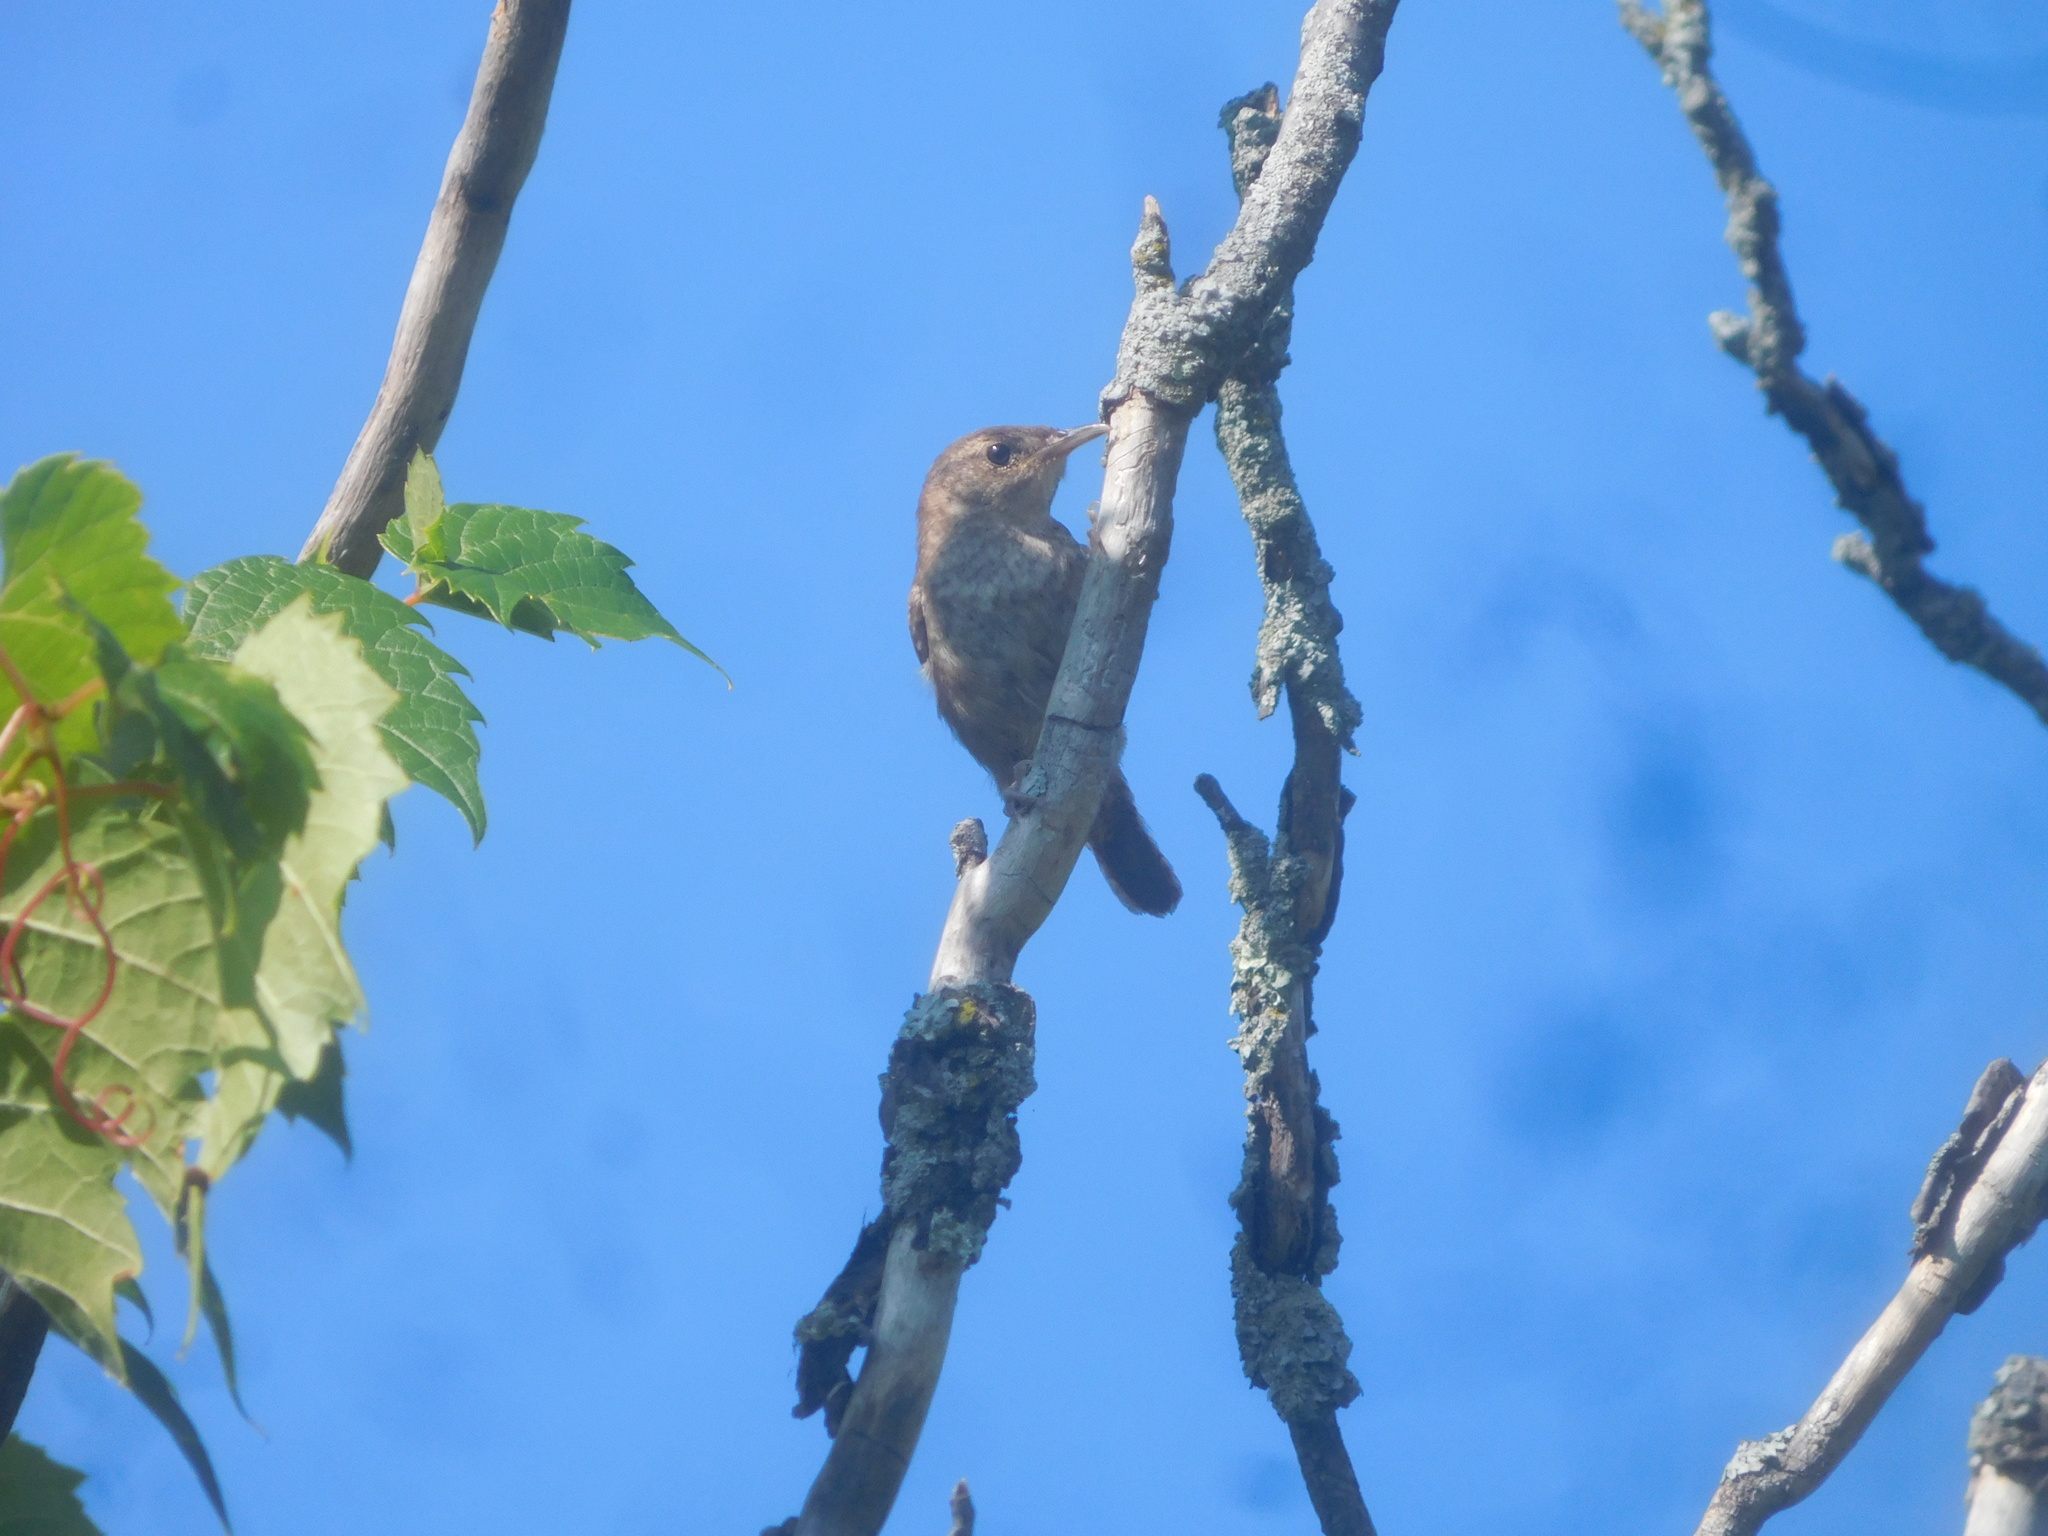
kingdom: Animalia
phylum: Chordata
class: Aves
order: Passeriformes
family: Troglodytidae
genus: Troglodytes
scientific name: Troglodytes aedon
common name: House wren
